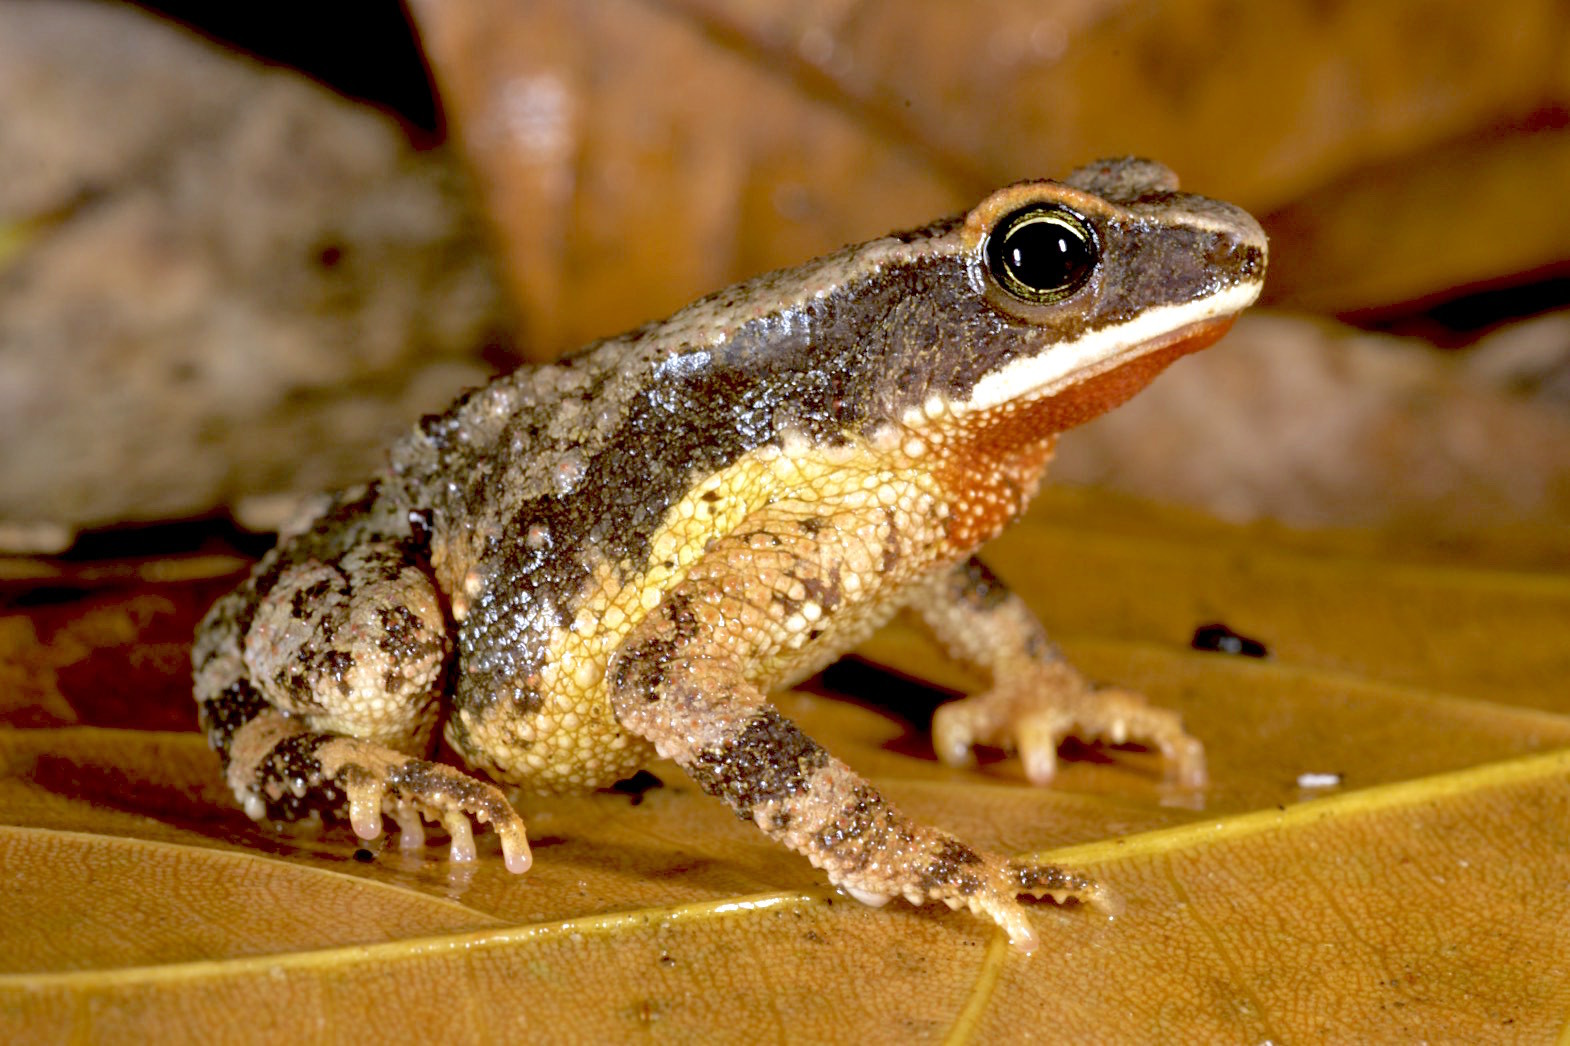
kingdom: Animalia
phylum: Chordata
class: Amphibia
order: Anura
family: Bufonidae
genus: Mertensophryne
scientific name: Mertensophryne usambarae
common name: Usambara forest toad
